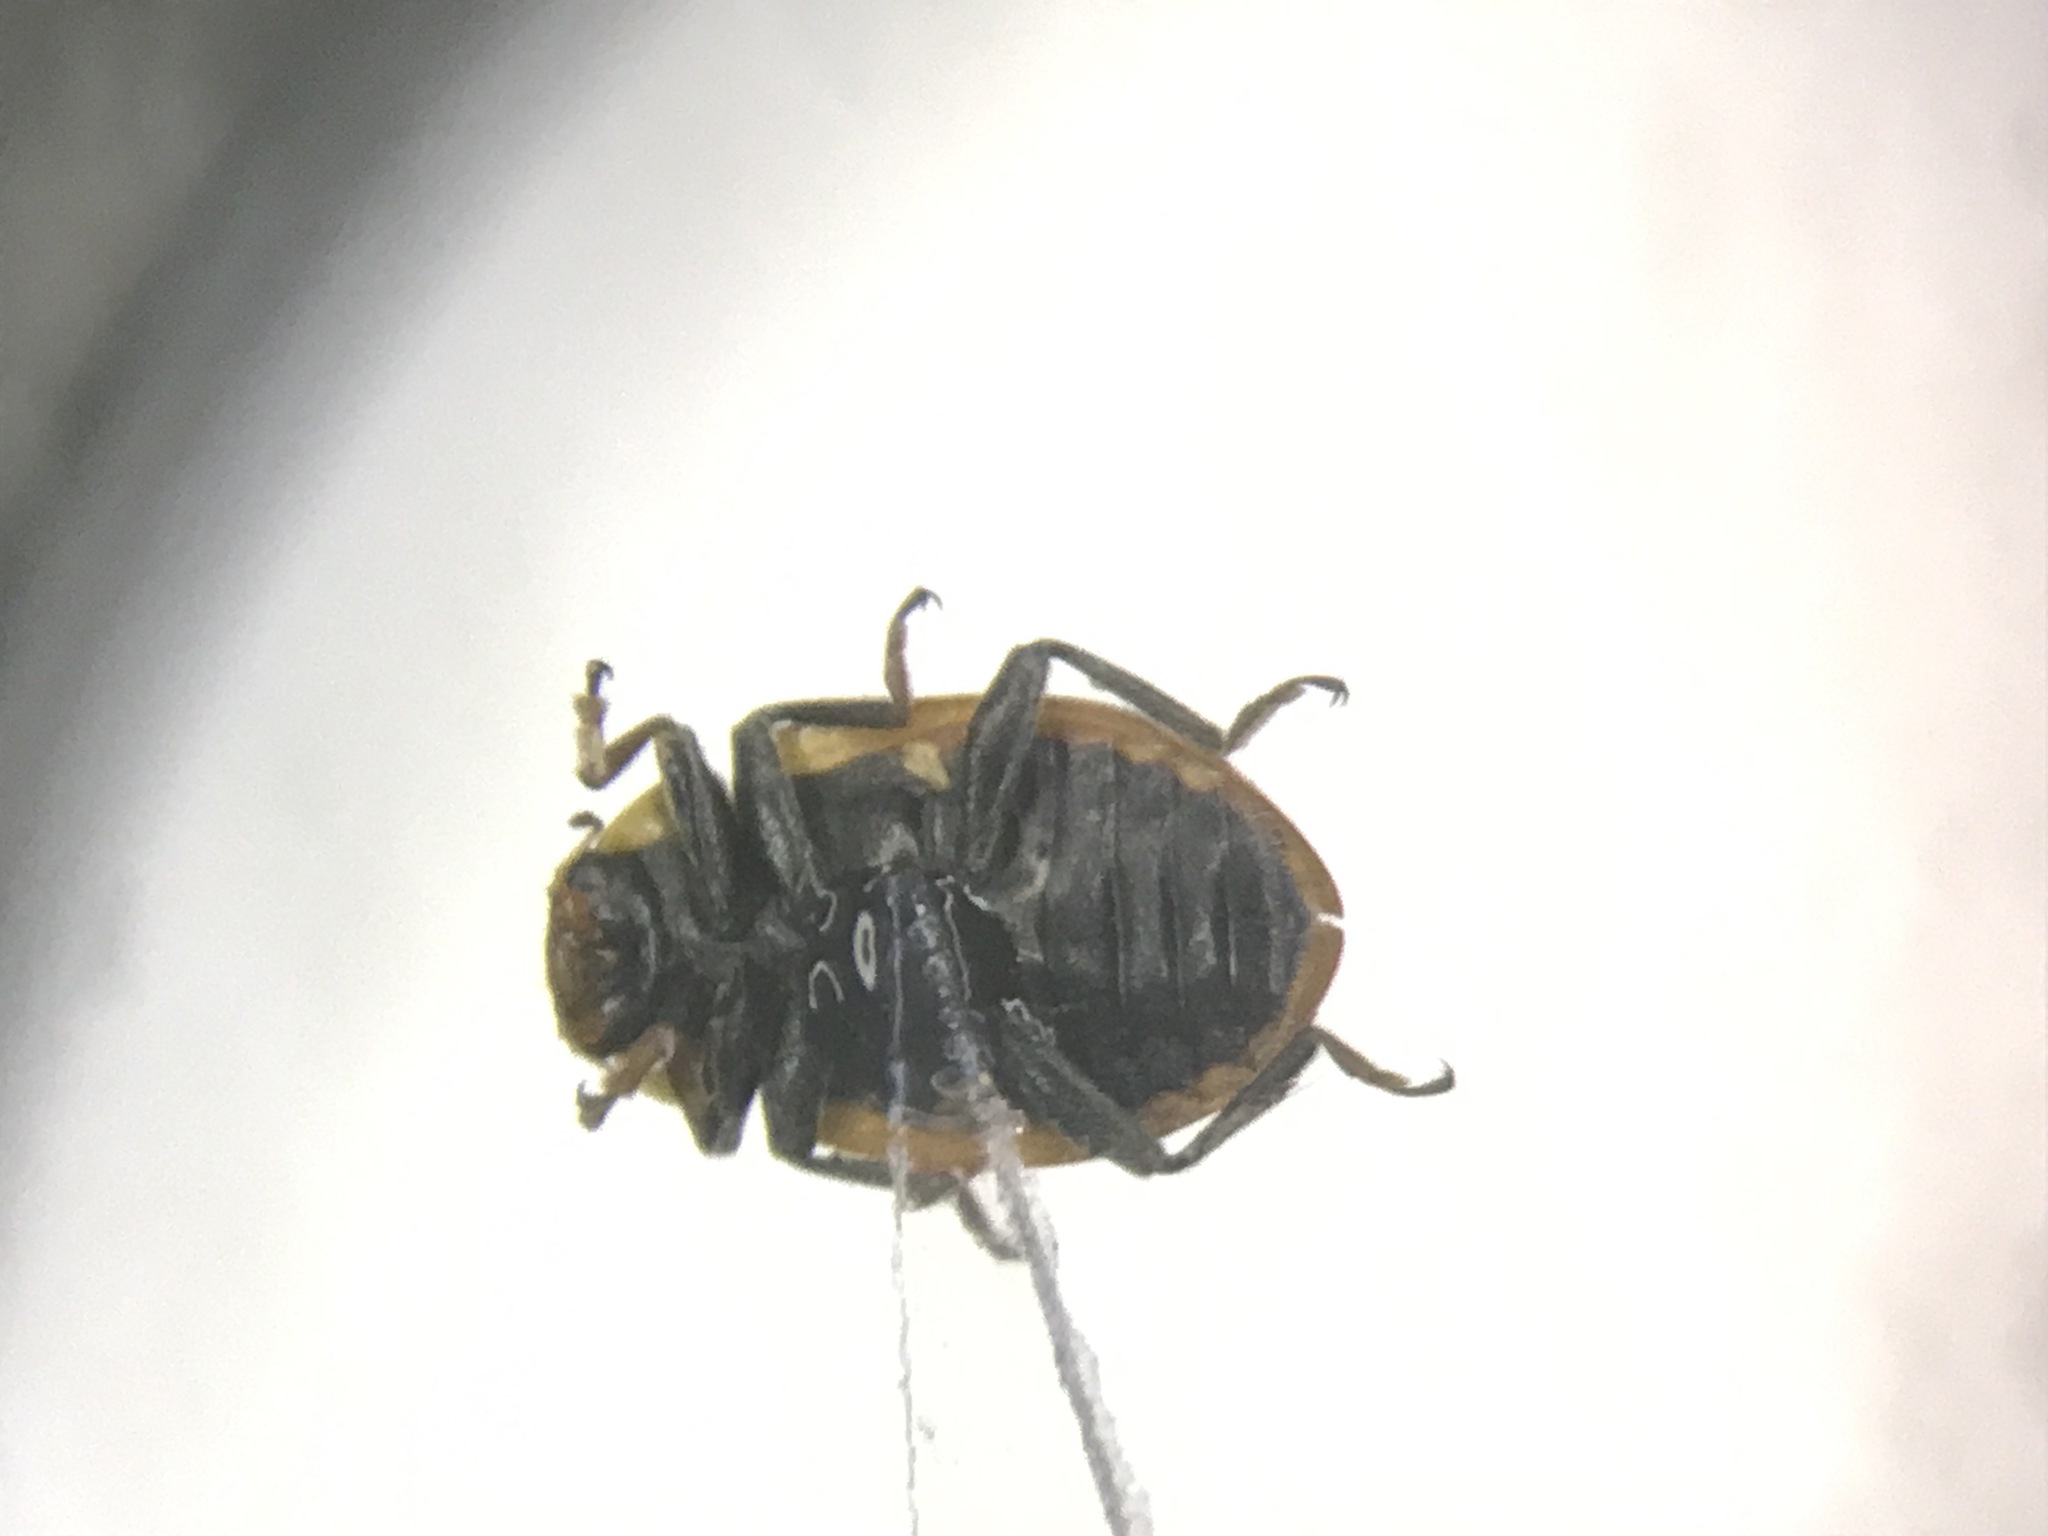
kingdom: Animalia
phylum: Arthropoda
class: Insecta
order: Coleoptera
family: Coccinellidae
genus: Hippodamia
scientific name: Hippodamia parenthesis
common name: Parenthesis lady beetle
